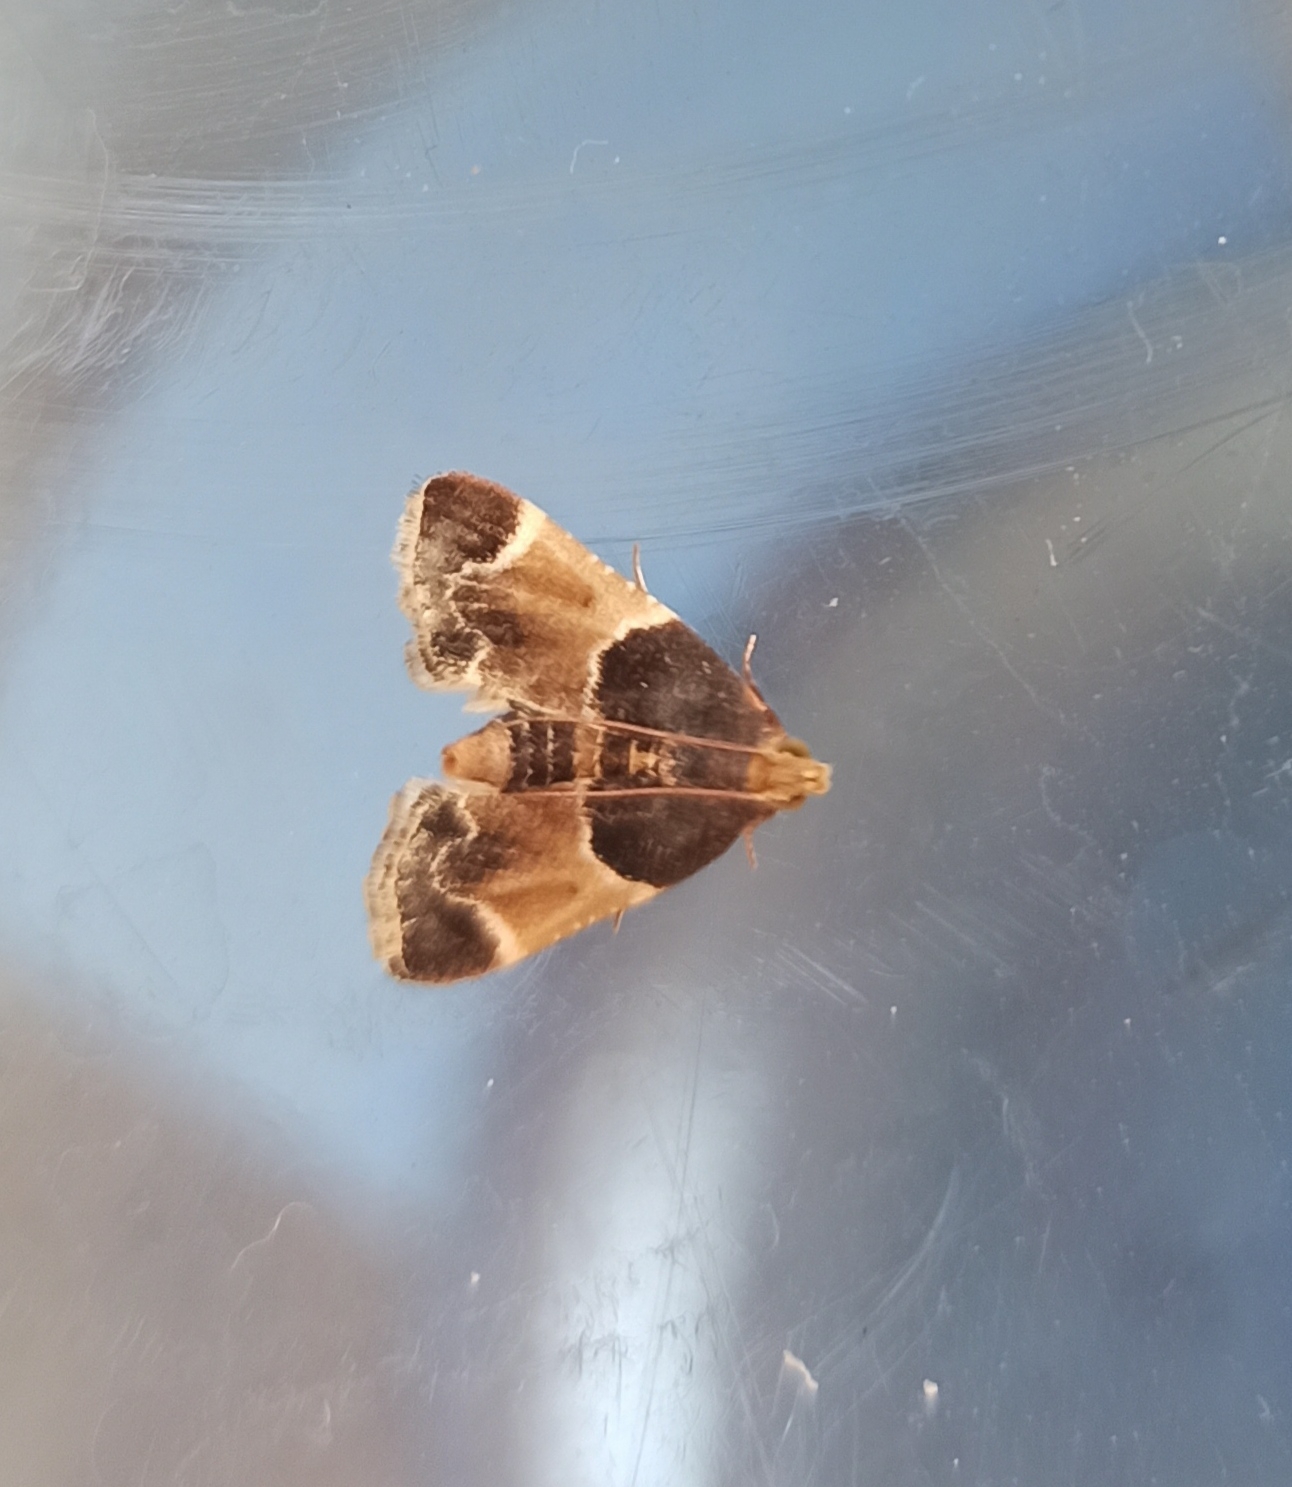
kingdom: Animalia
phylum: Arthropoda
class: Insecta
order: Lepidoptera
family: Pyralidae
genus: Pyralis
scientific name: Pyralis farinalis
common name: Meal moth
